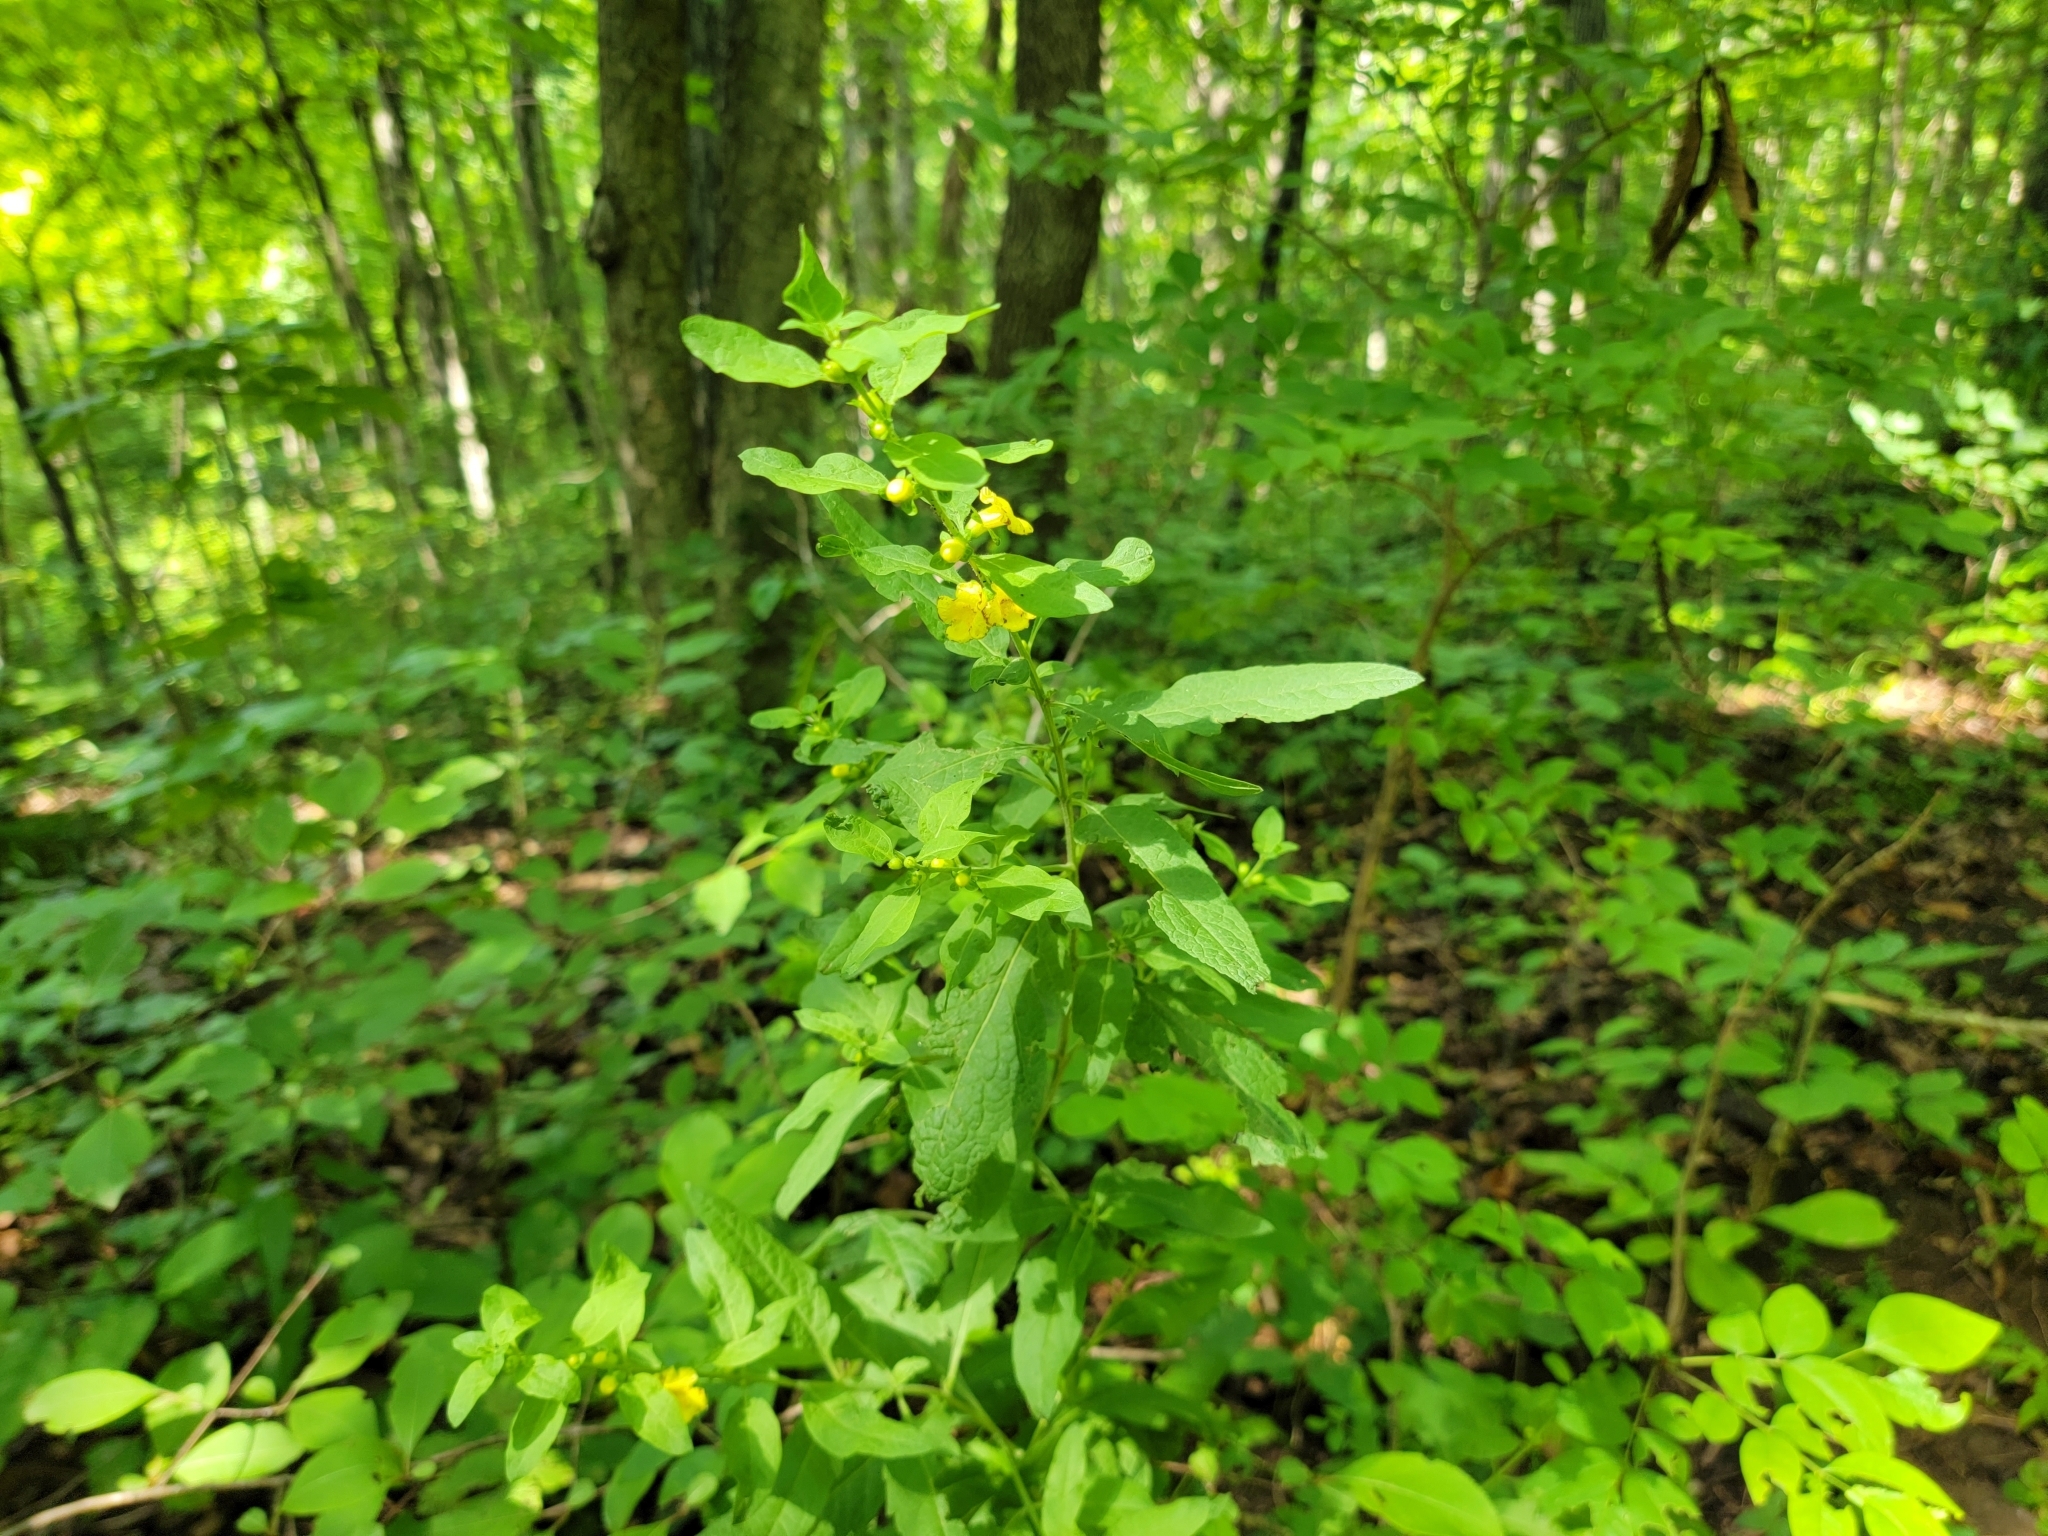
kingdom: Plantae
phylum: Tracheophyta
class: Magnoliopsida
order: Lamiales
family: Orobanchaceae
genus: Dasistoma
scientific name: Dasistoma macrophyllum
